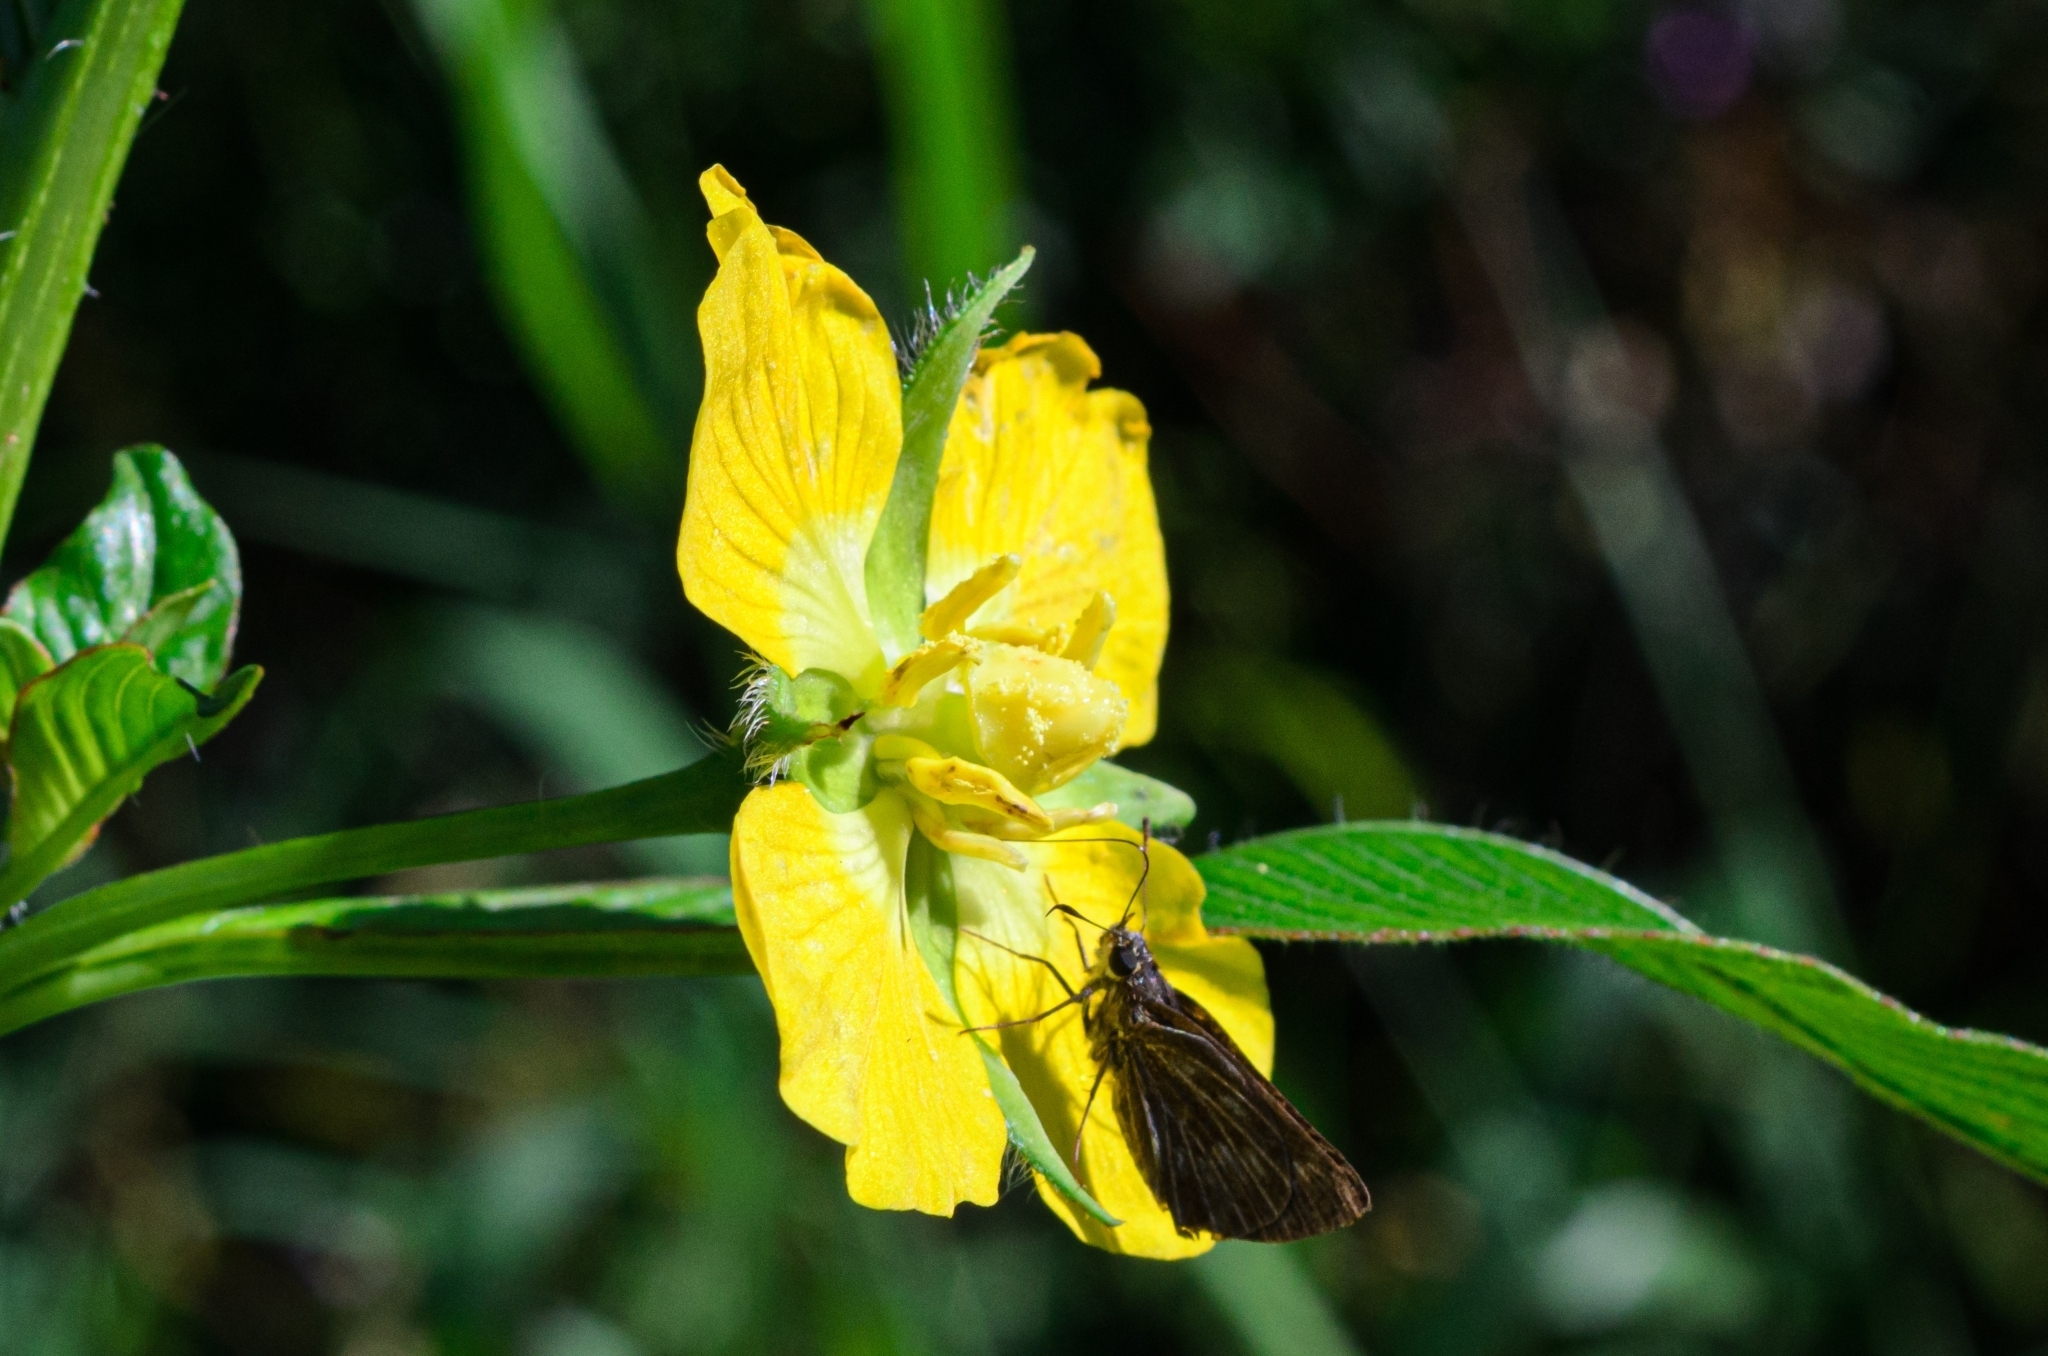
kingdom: Plantae
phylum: Tracheophyta
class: Magnoliopsida
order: Myrtales
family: Onagraceae
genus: Ludwigia
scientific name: Ludwigia peruviana
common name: Peruvian primrose-willow
